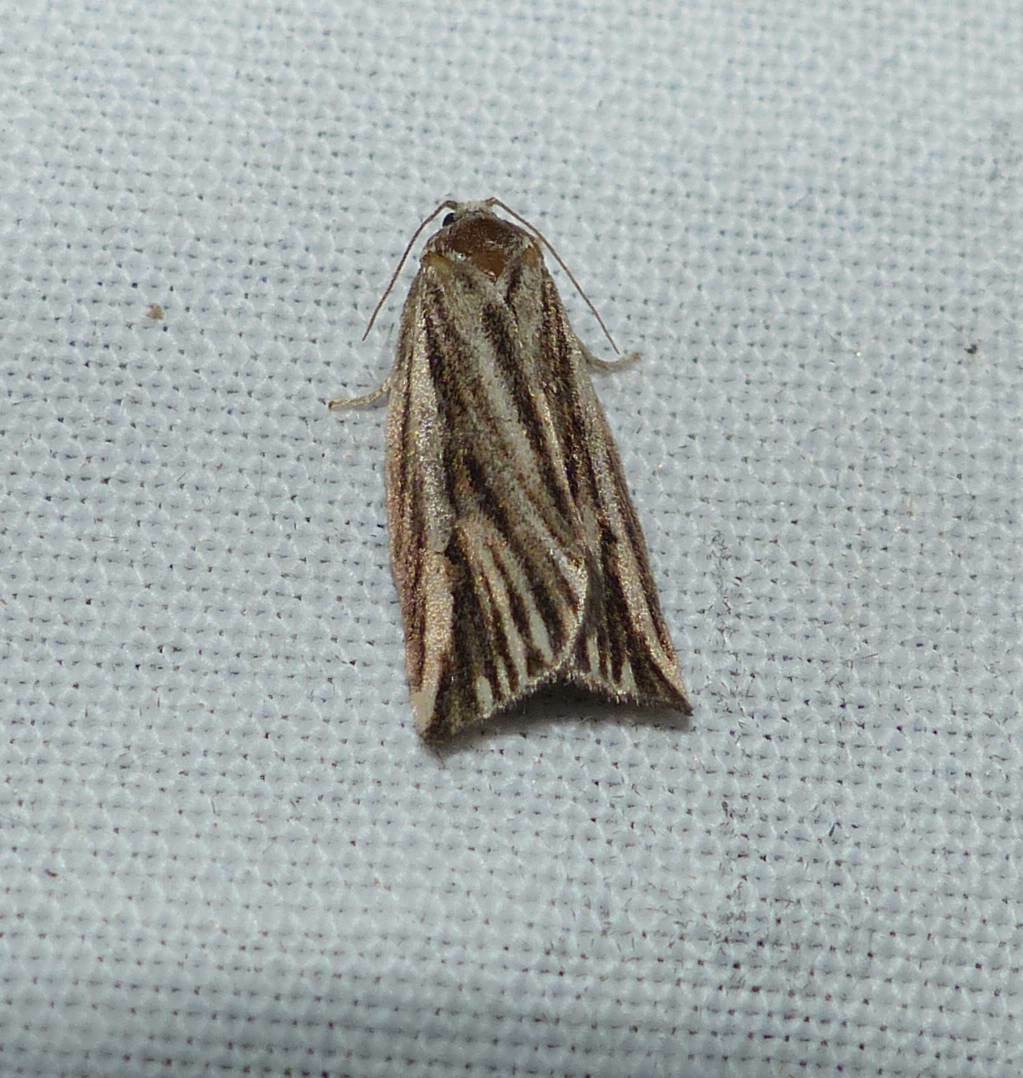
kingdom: Animalia
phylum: Arthropoda
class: Insecta
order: Lepidoptera
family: Tortricidae
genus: Archips
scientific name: Archips strianus
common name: Striated tortrix moth
